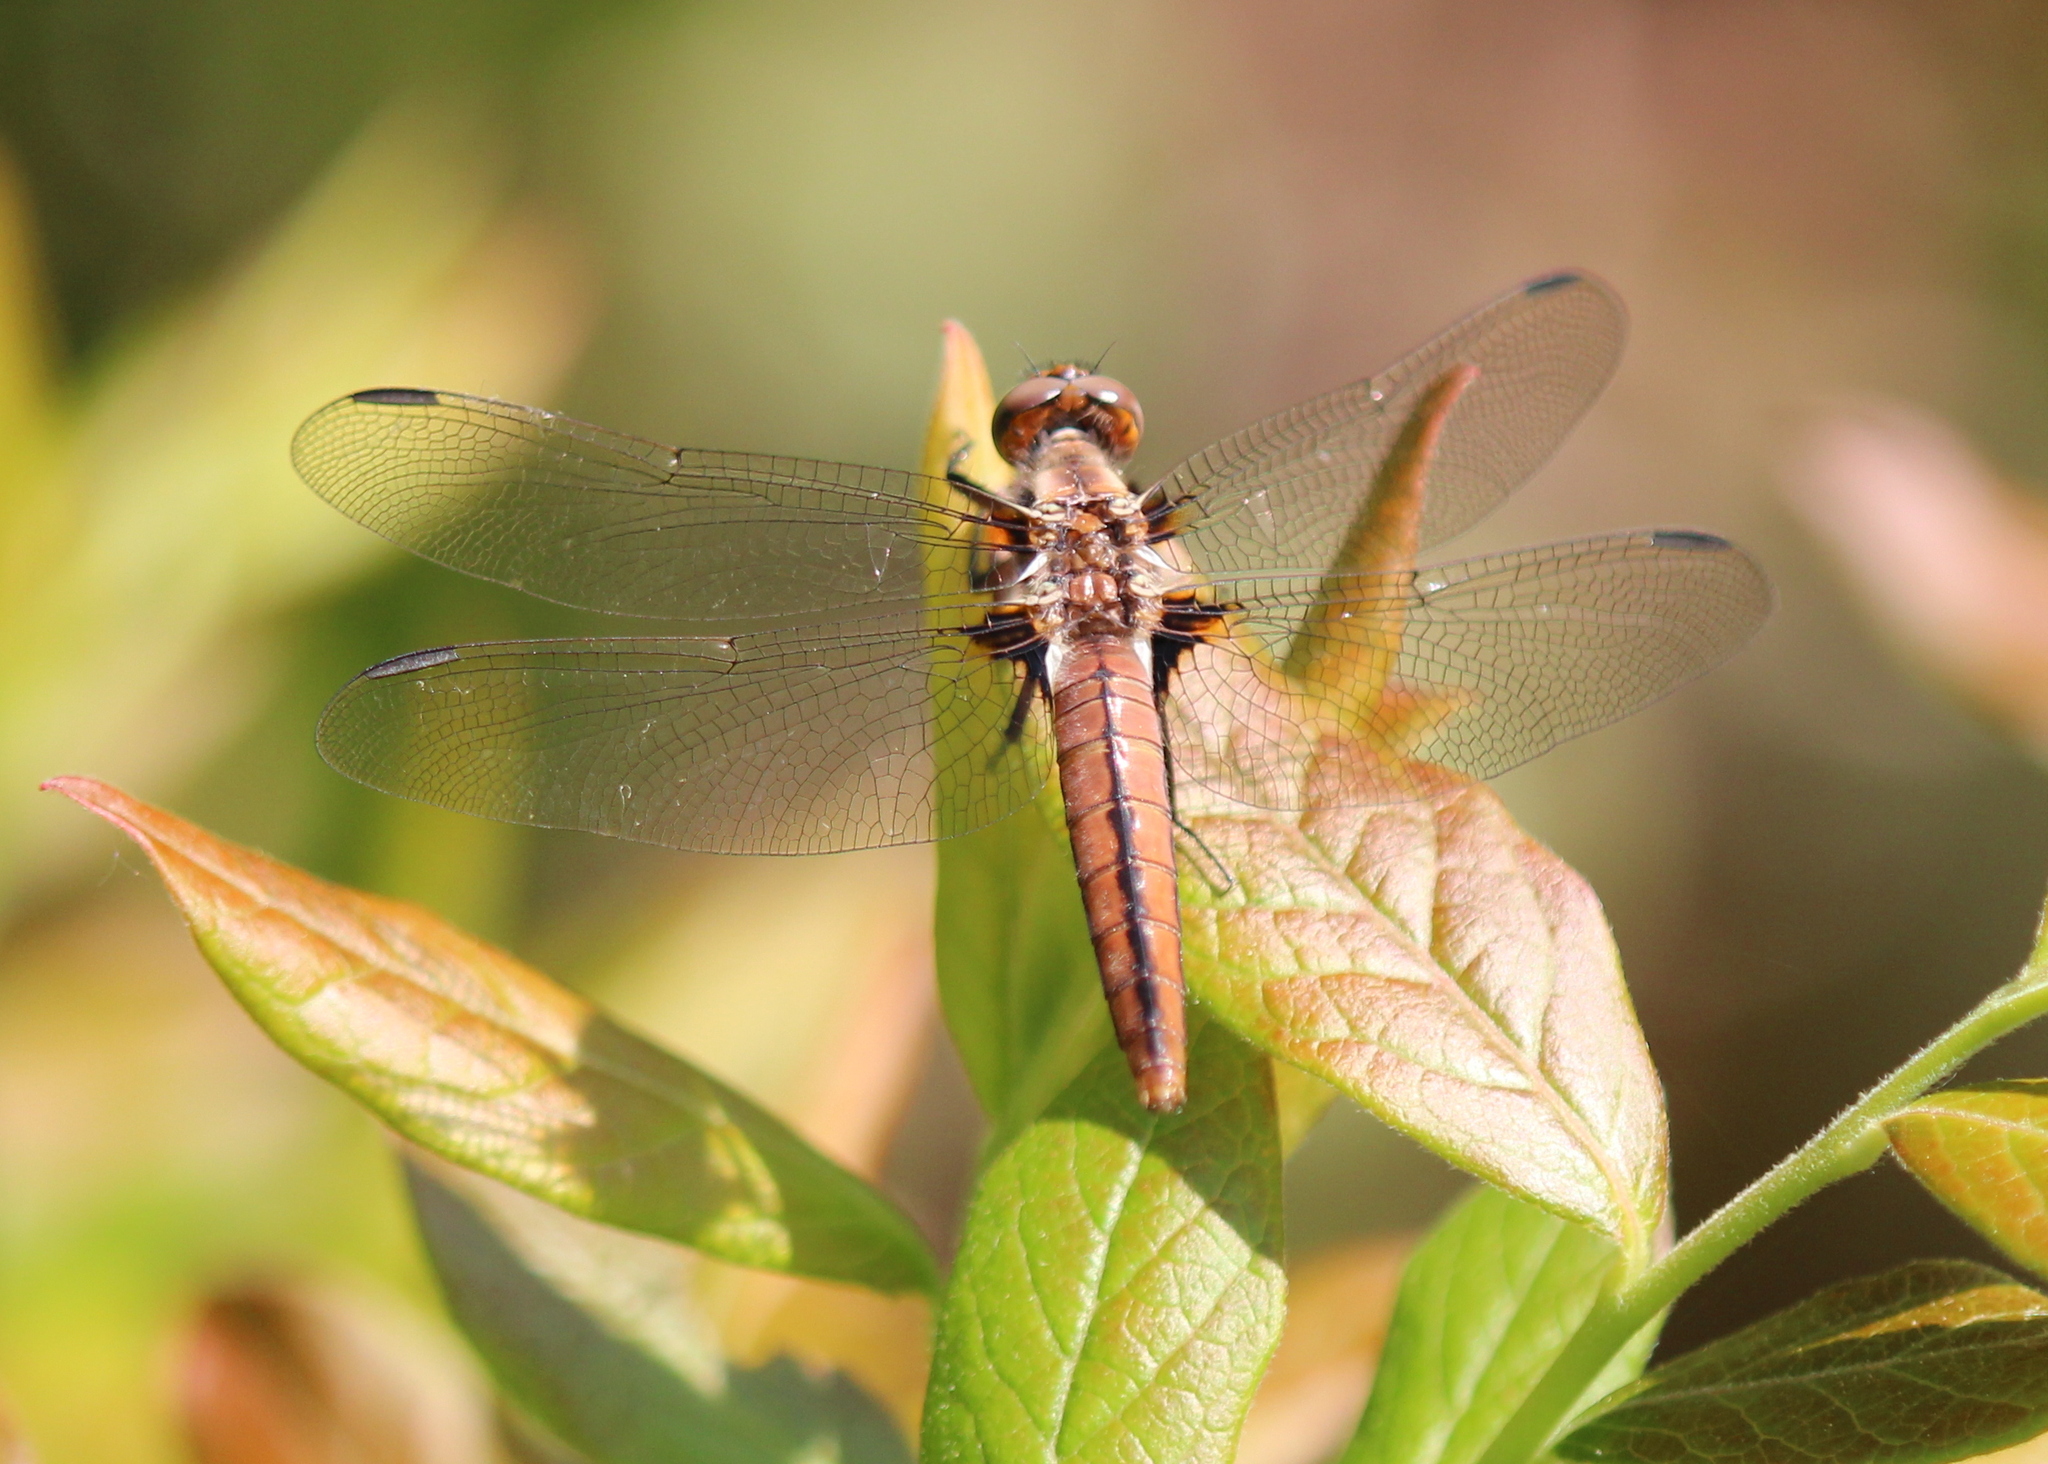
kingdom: Animalia
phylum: Arthropoda
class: Insecta
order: Odonata
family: Libellulidae
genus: Ladona
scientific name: Ladona julia
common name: Chalk-fronted corporal
